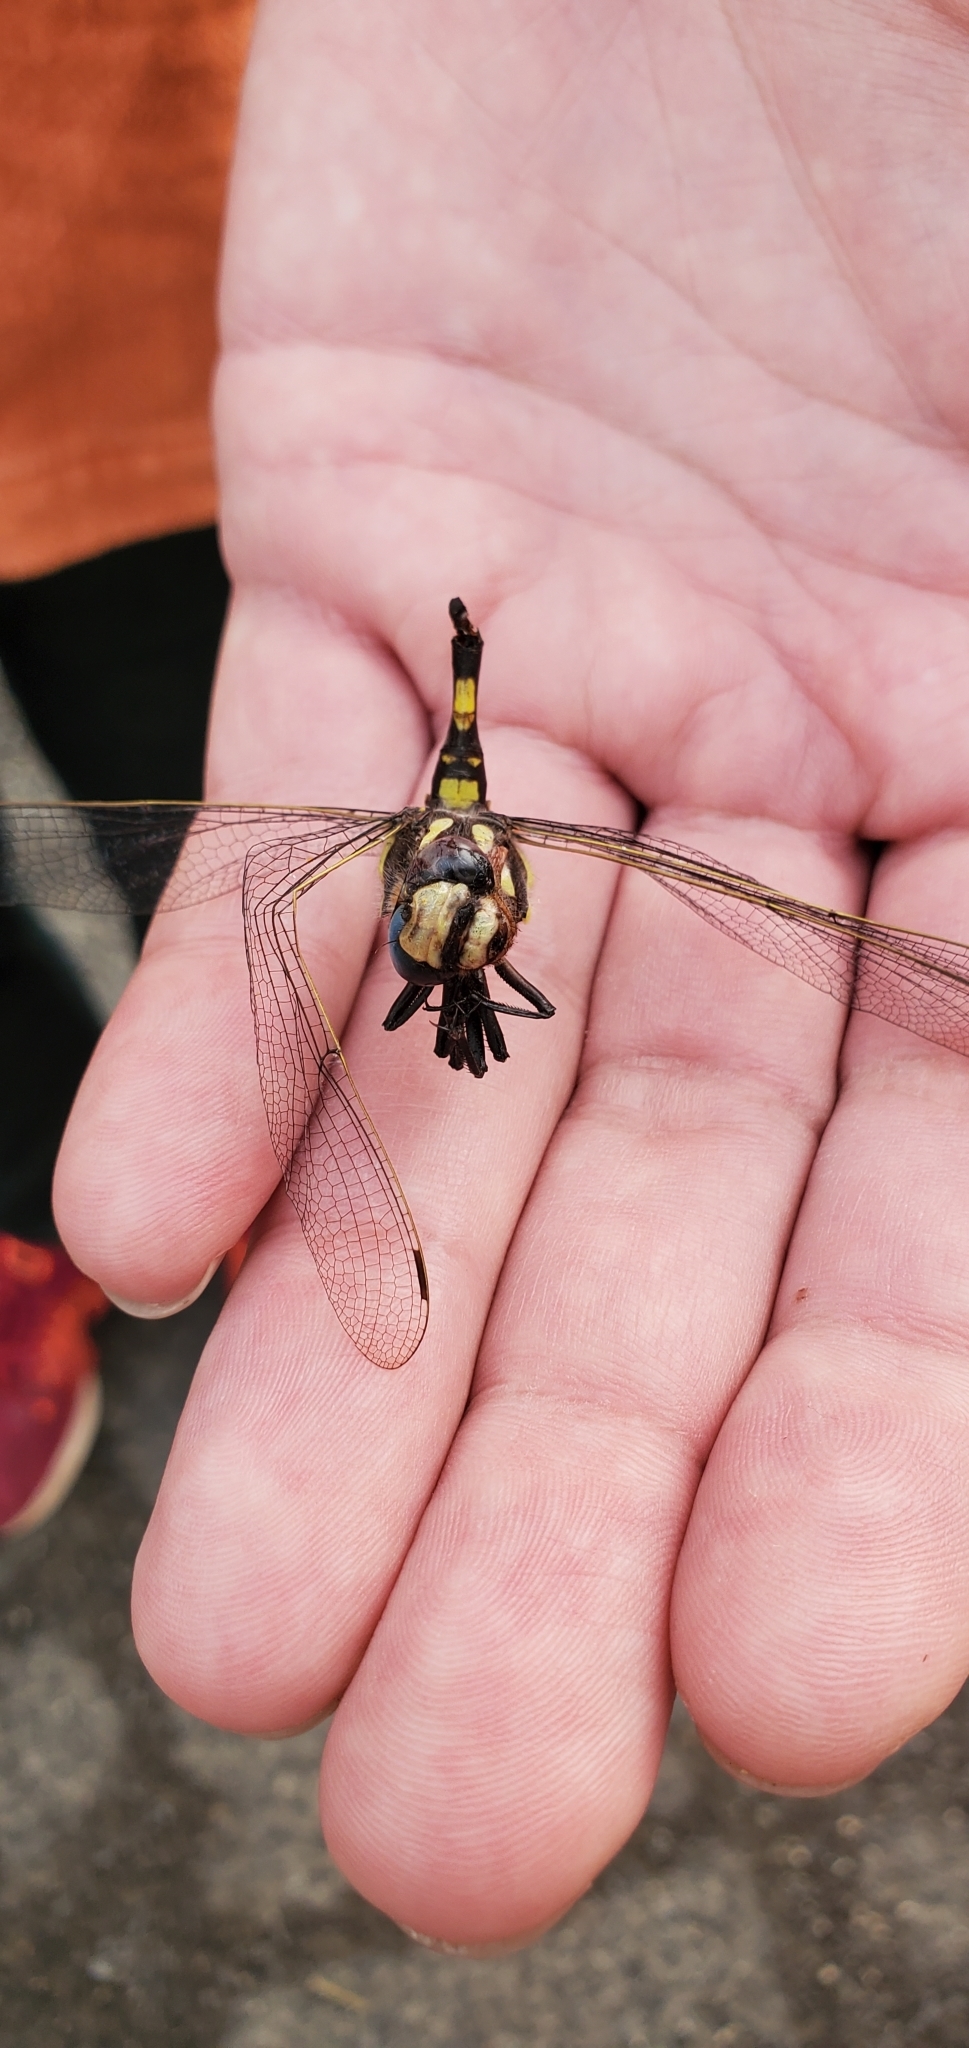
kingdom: Animalia
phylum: Arthropoda
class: Insecta
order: Odonata
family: Cordulegastridae
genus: Cordulegaster
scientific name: Cordulegaster dorsalis
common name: Pacific spiketail
